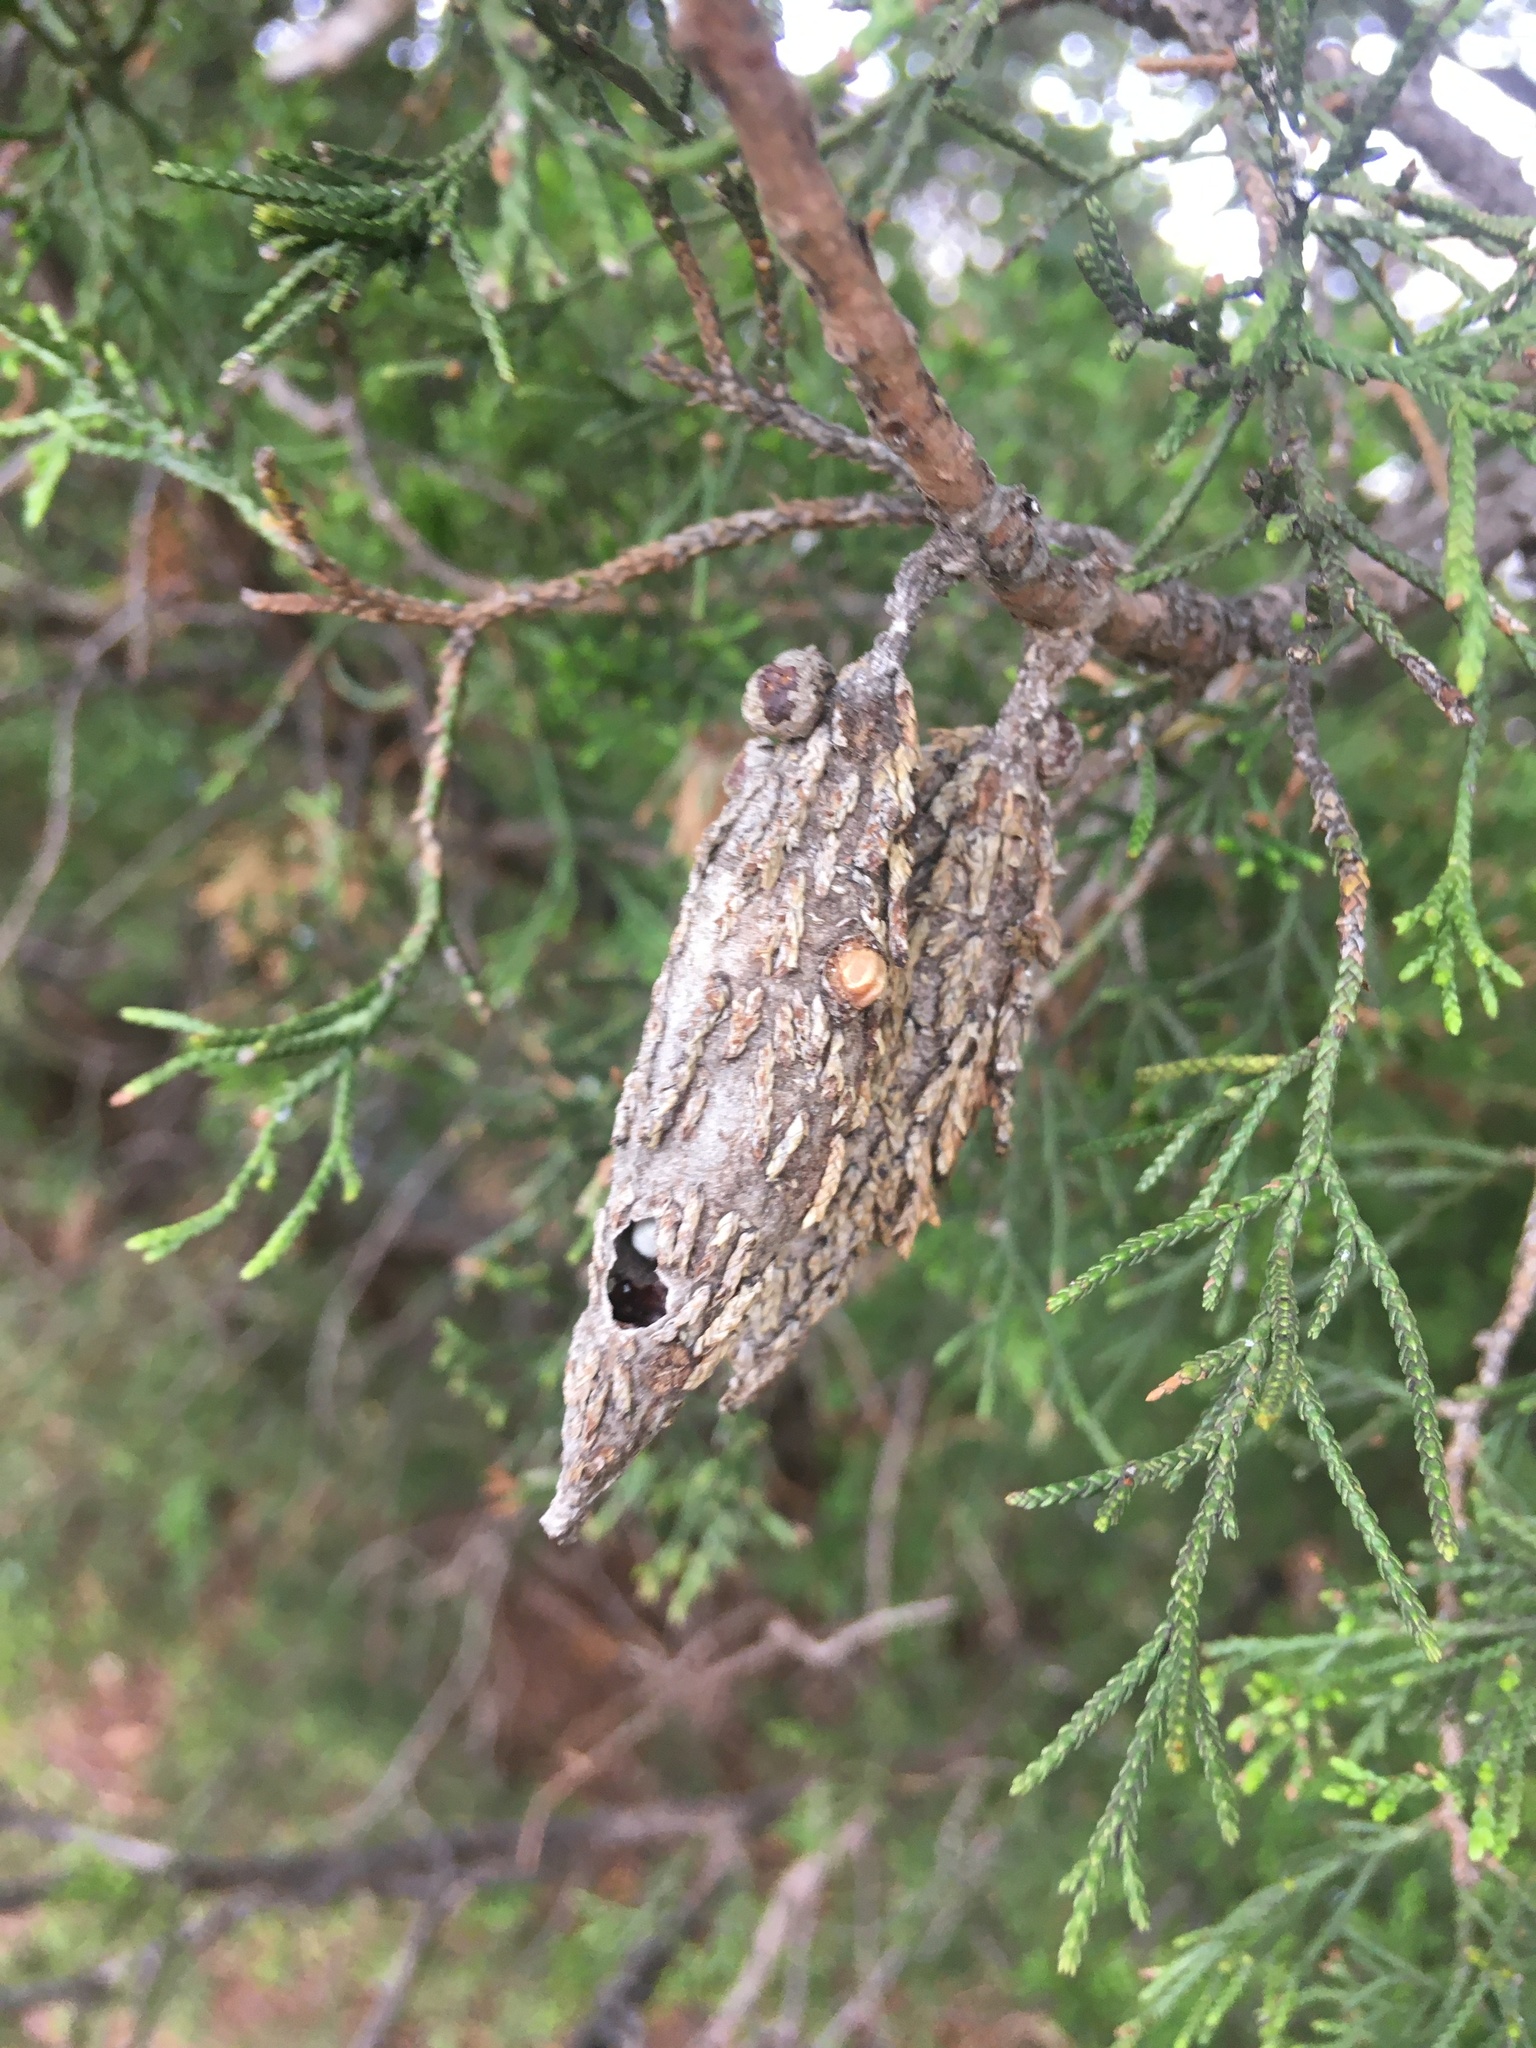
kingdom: Animalia
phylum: Arthropoda
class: Insecta
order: Lepidoptera
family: Psychidae
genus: Thyridopteryx
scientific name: Thyridopteryx ephemeraeformis
